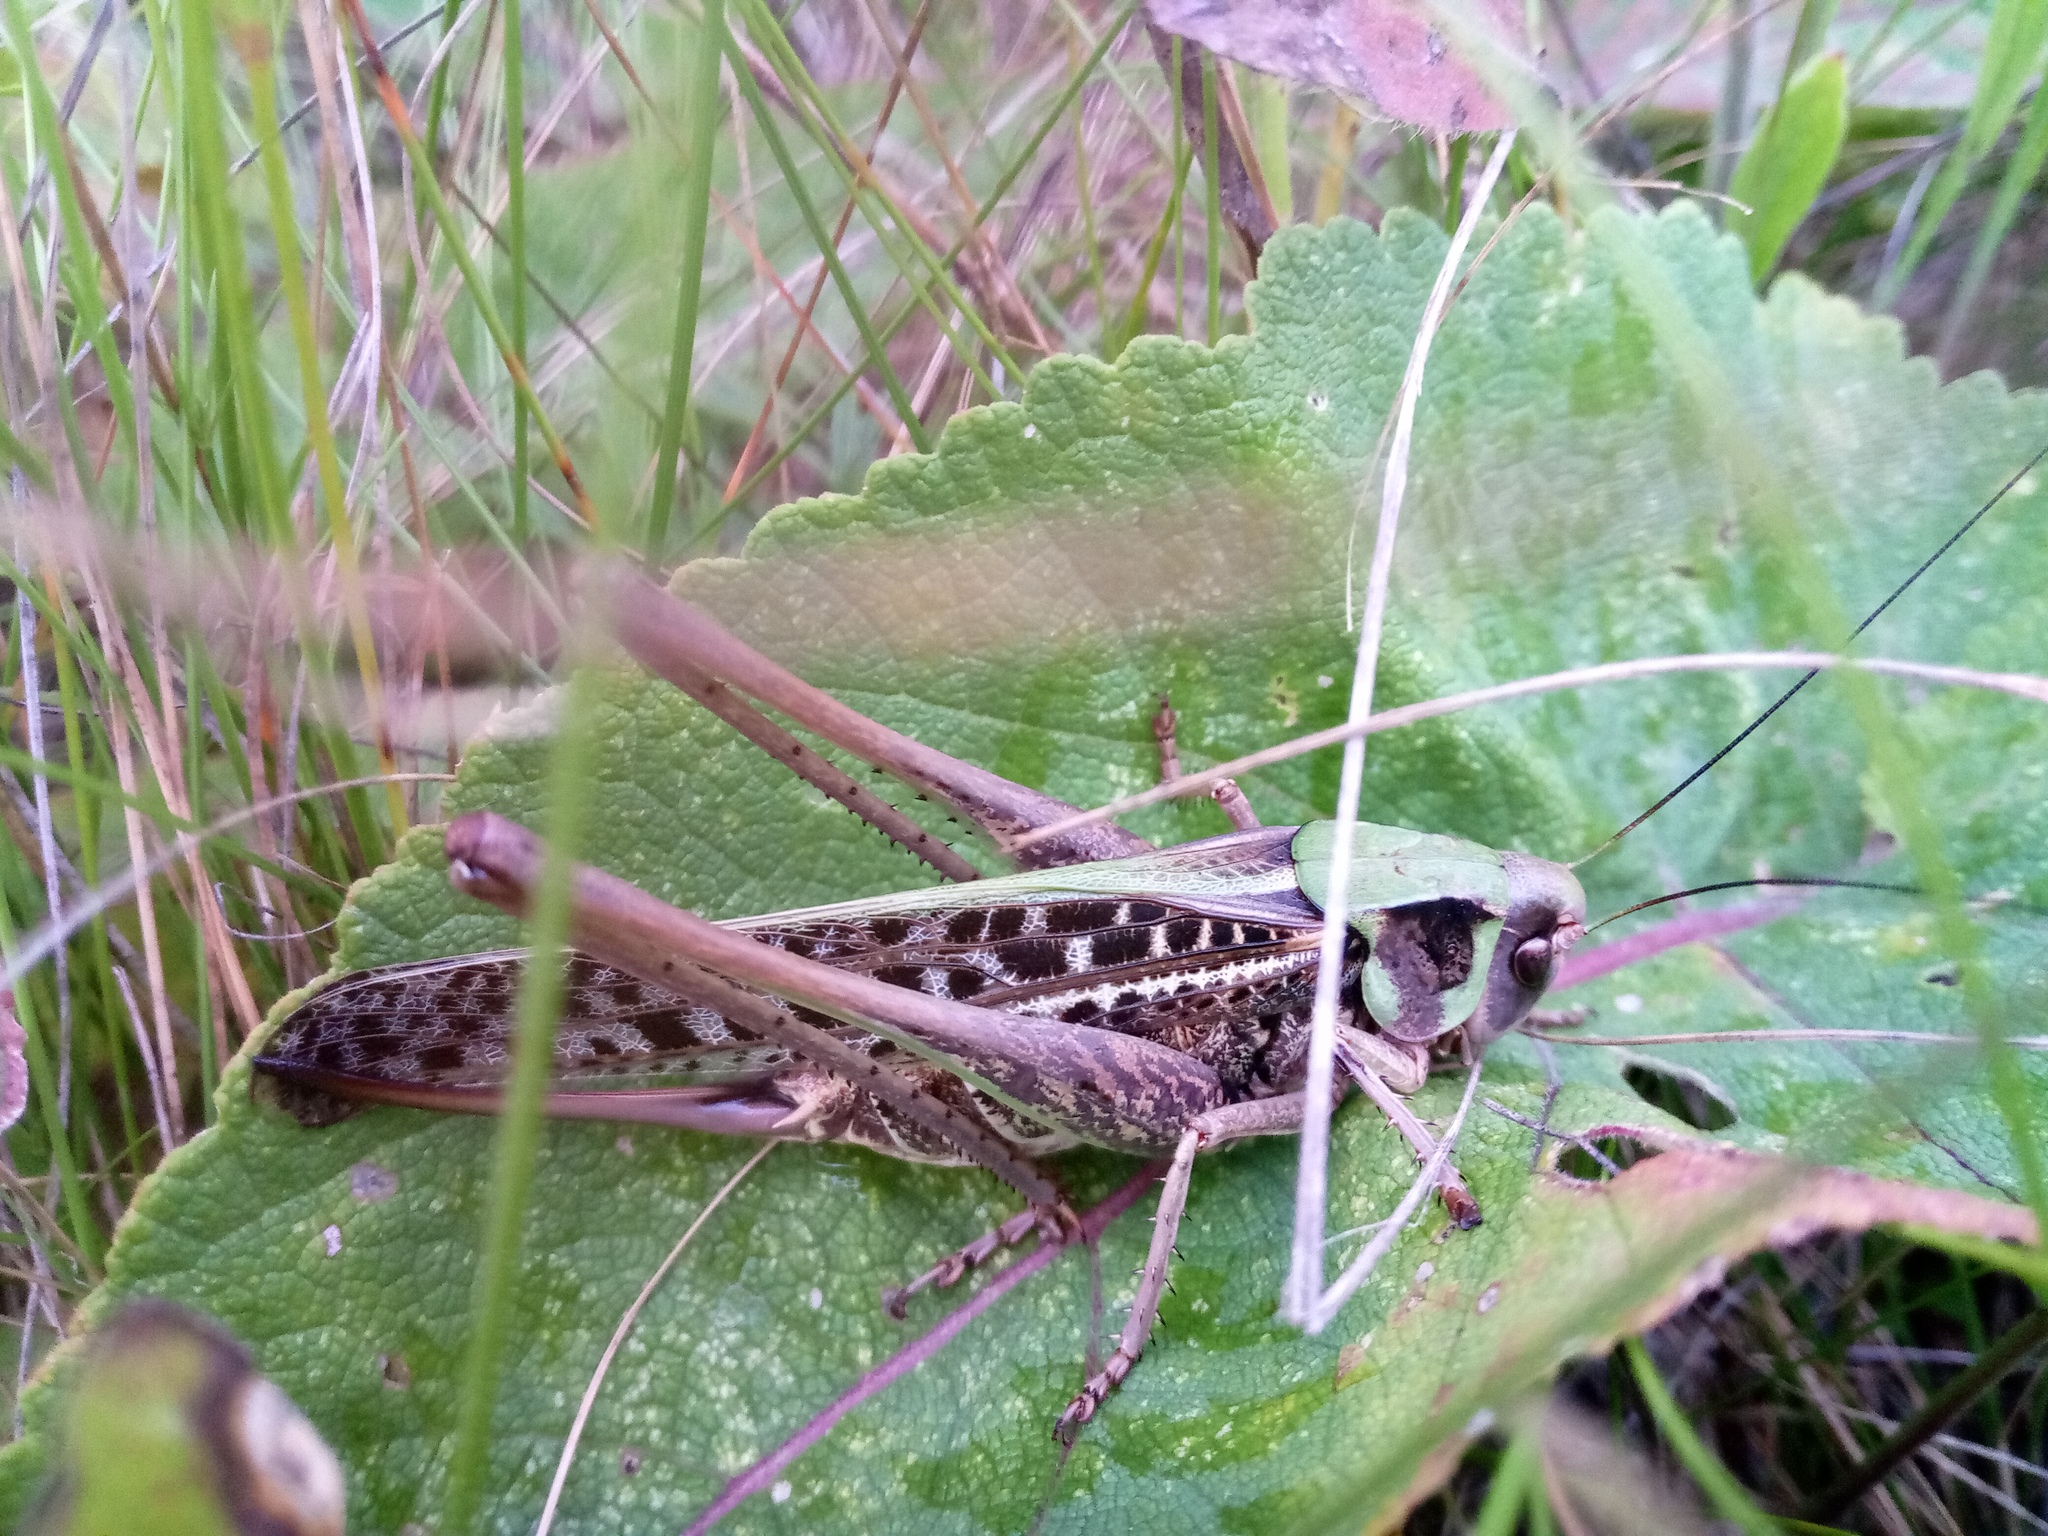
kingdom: Animalia
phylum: Arthropoda
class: Insecta
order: Orthoptera
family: Tettigoniidae
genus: Decticus
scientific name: Decticus verrucivorus
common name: Wart-biter
